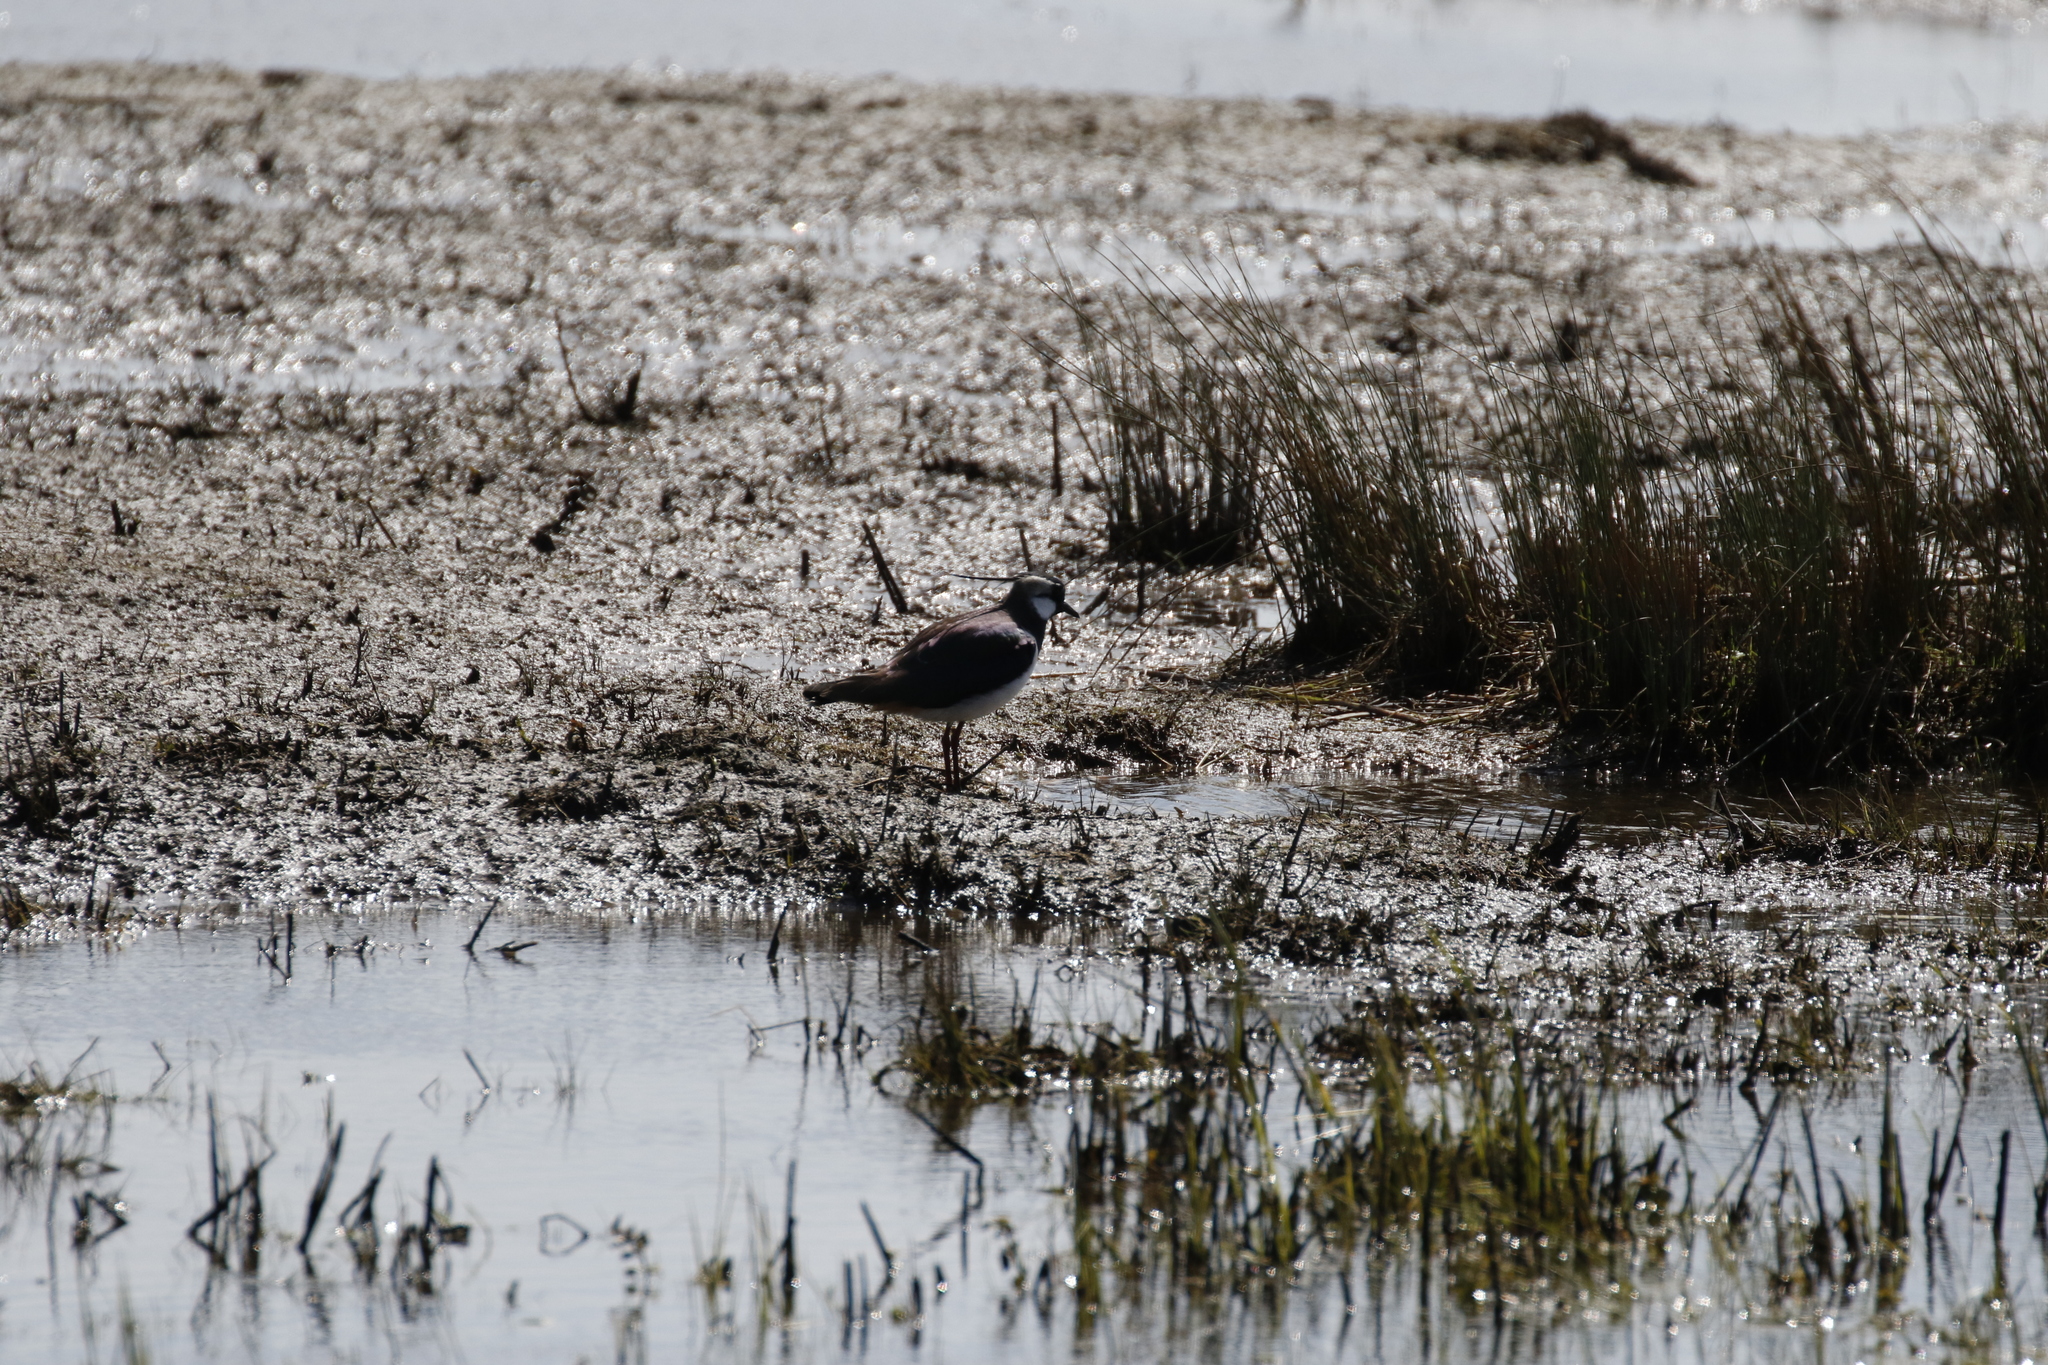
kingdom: Animalia
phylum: Chordata
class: Aves
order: Charadriiformes
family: Charadriidae
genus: Vanellus
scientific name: Vanellus vanellus
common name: Northern lapwing
